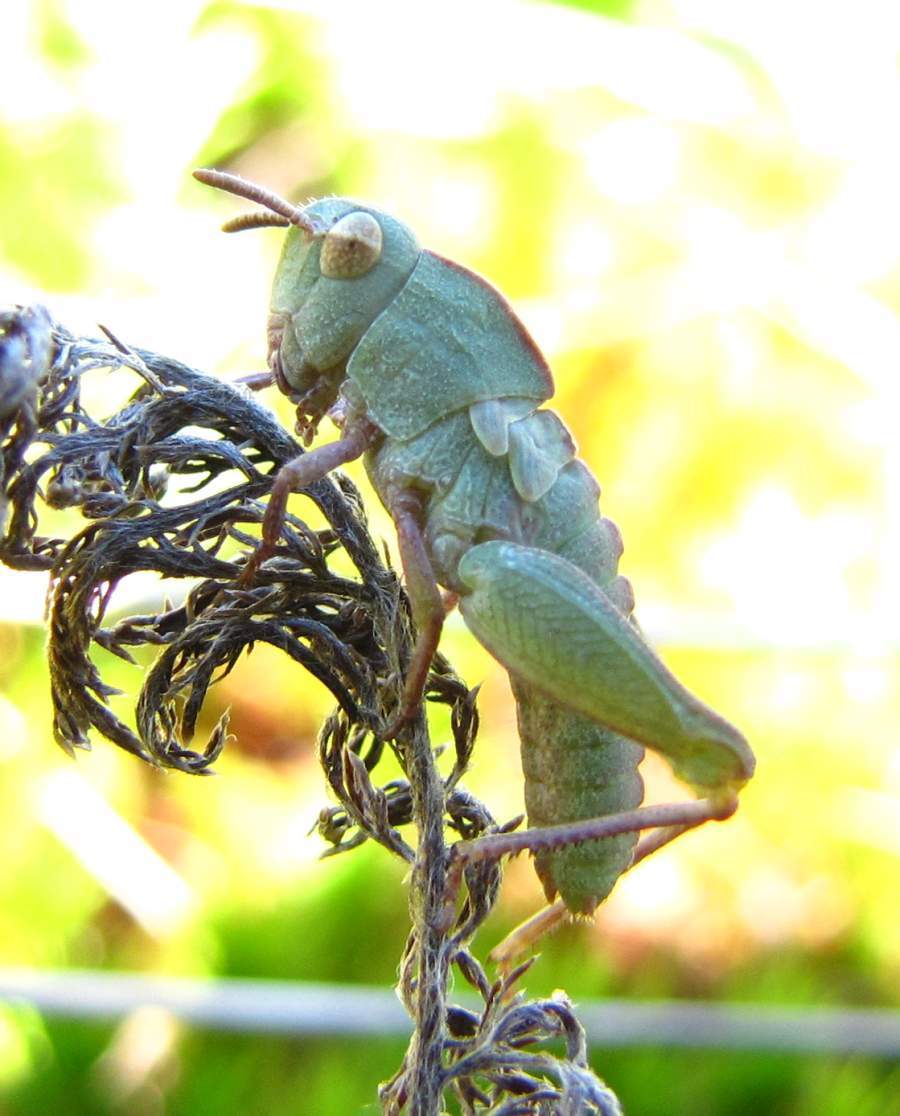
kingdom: Animalia
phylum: Arthropoda
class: Insecta
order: Orthoptera
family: Acrididae
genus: Chortophaga
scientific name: Chortophaga viridifasciata
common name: Green-striped grasshopper
